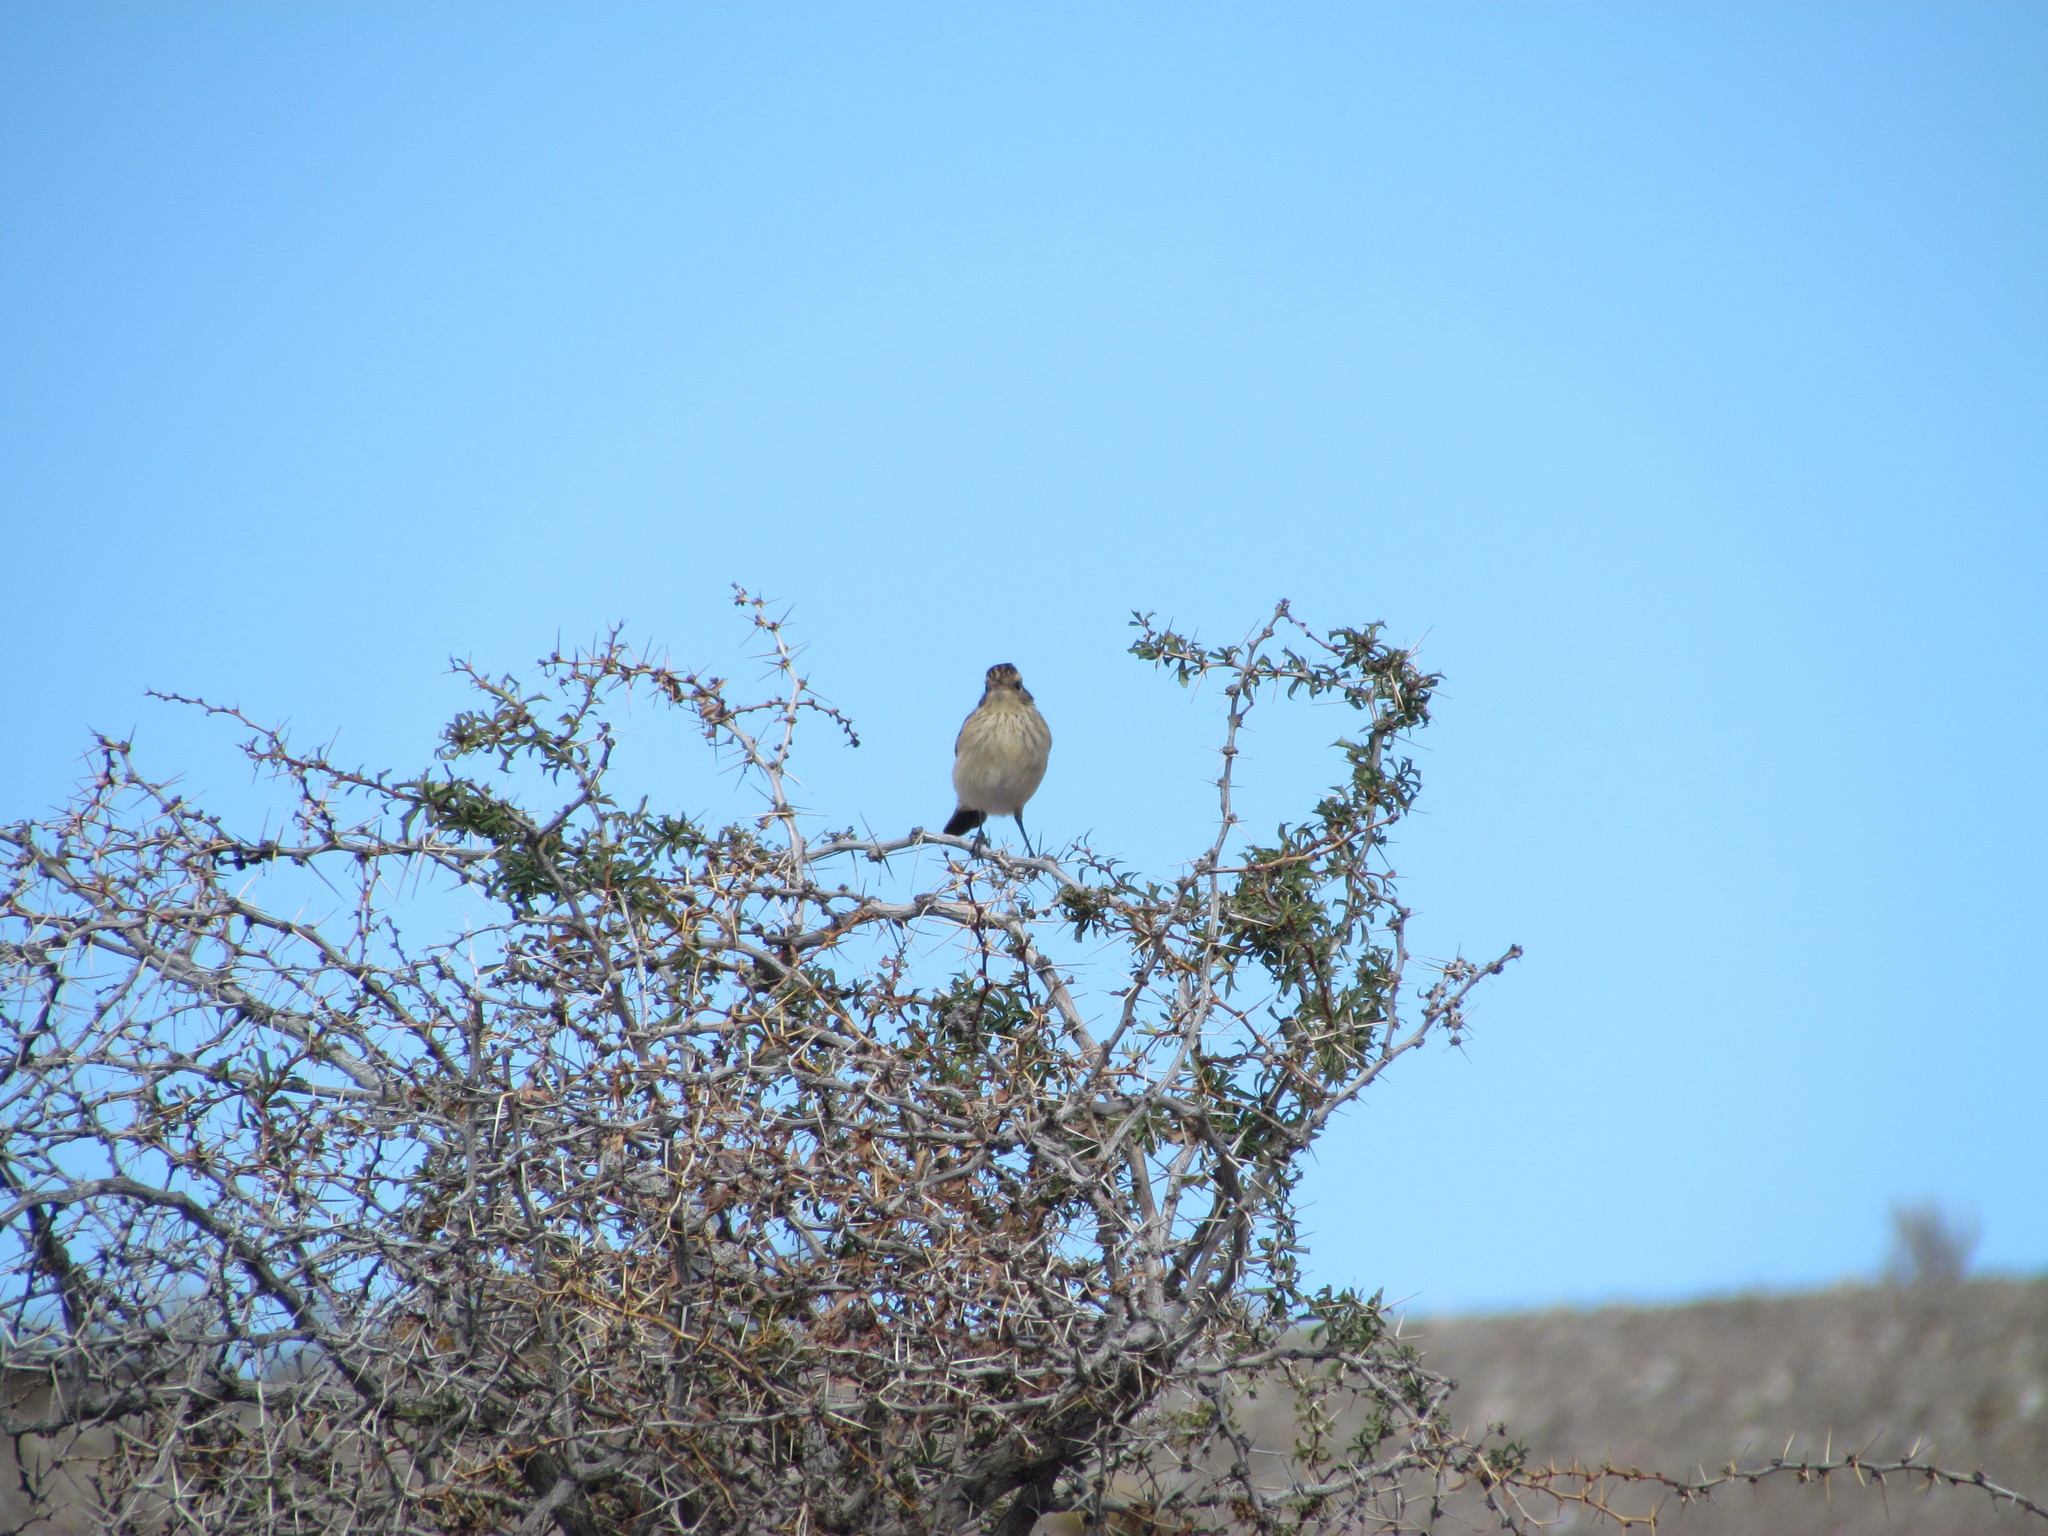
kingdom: Animalia
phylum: Chordata
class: Aves
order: Passeriformes
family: Tyrannidae
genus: Hymenops
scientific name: Hymenops perspicillatus
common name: Spectacled tyrant
